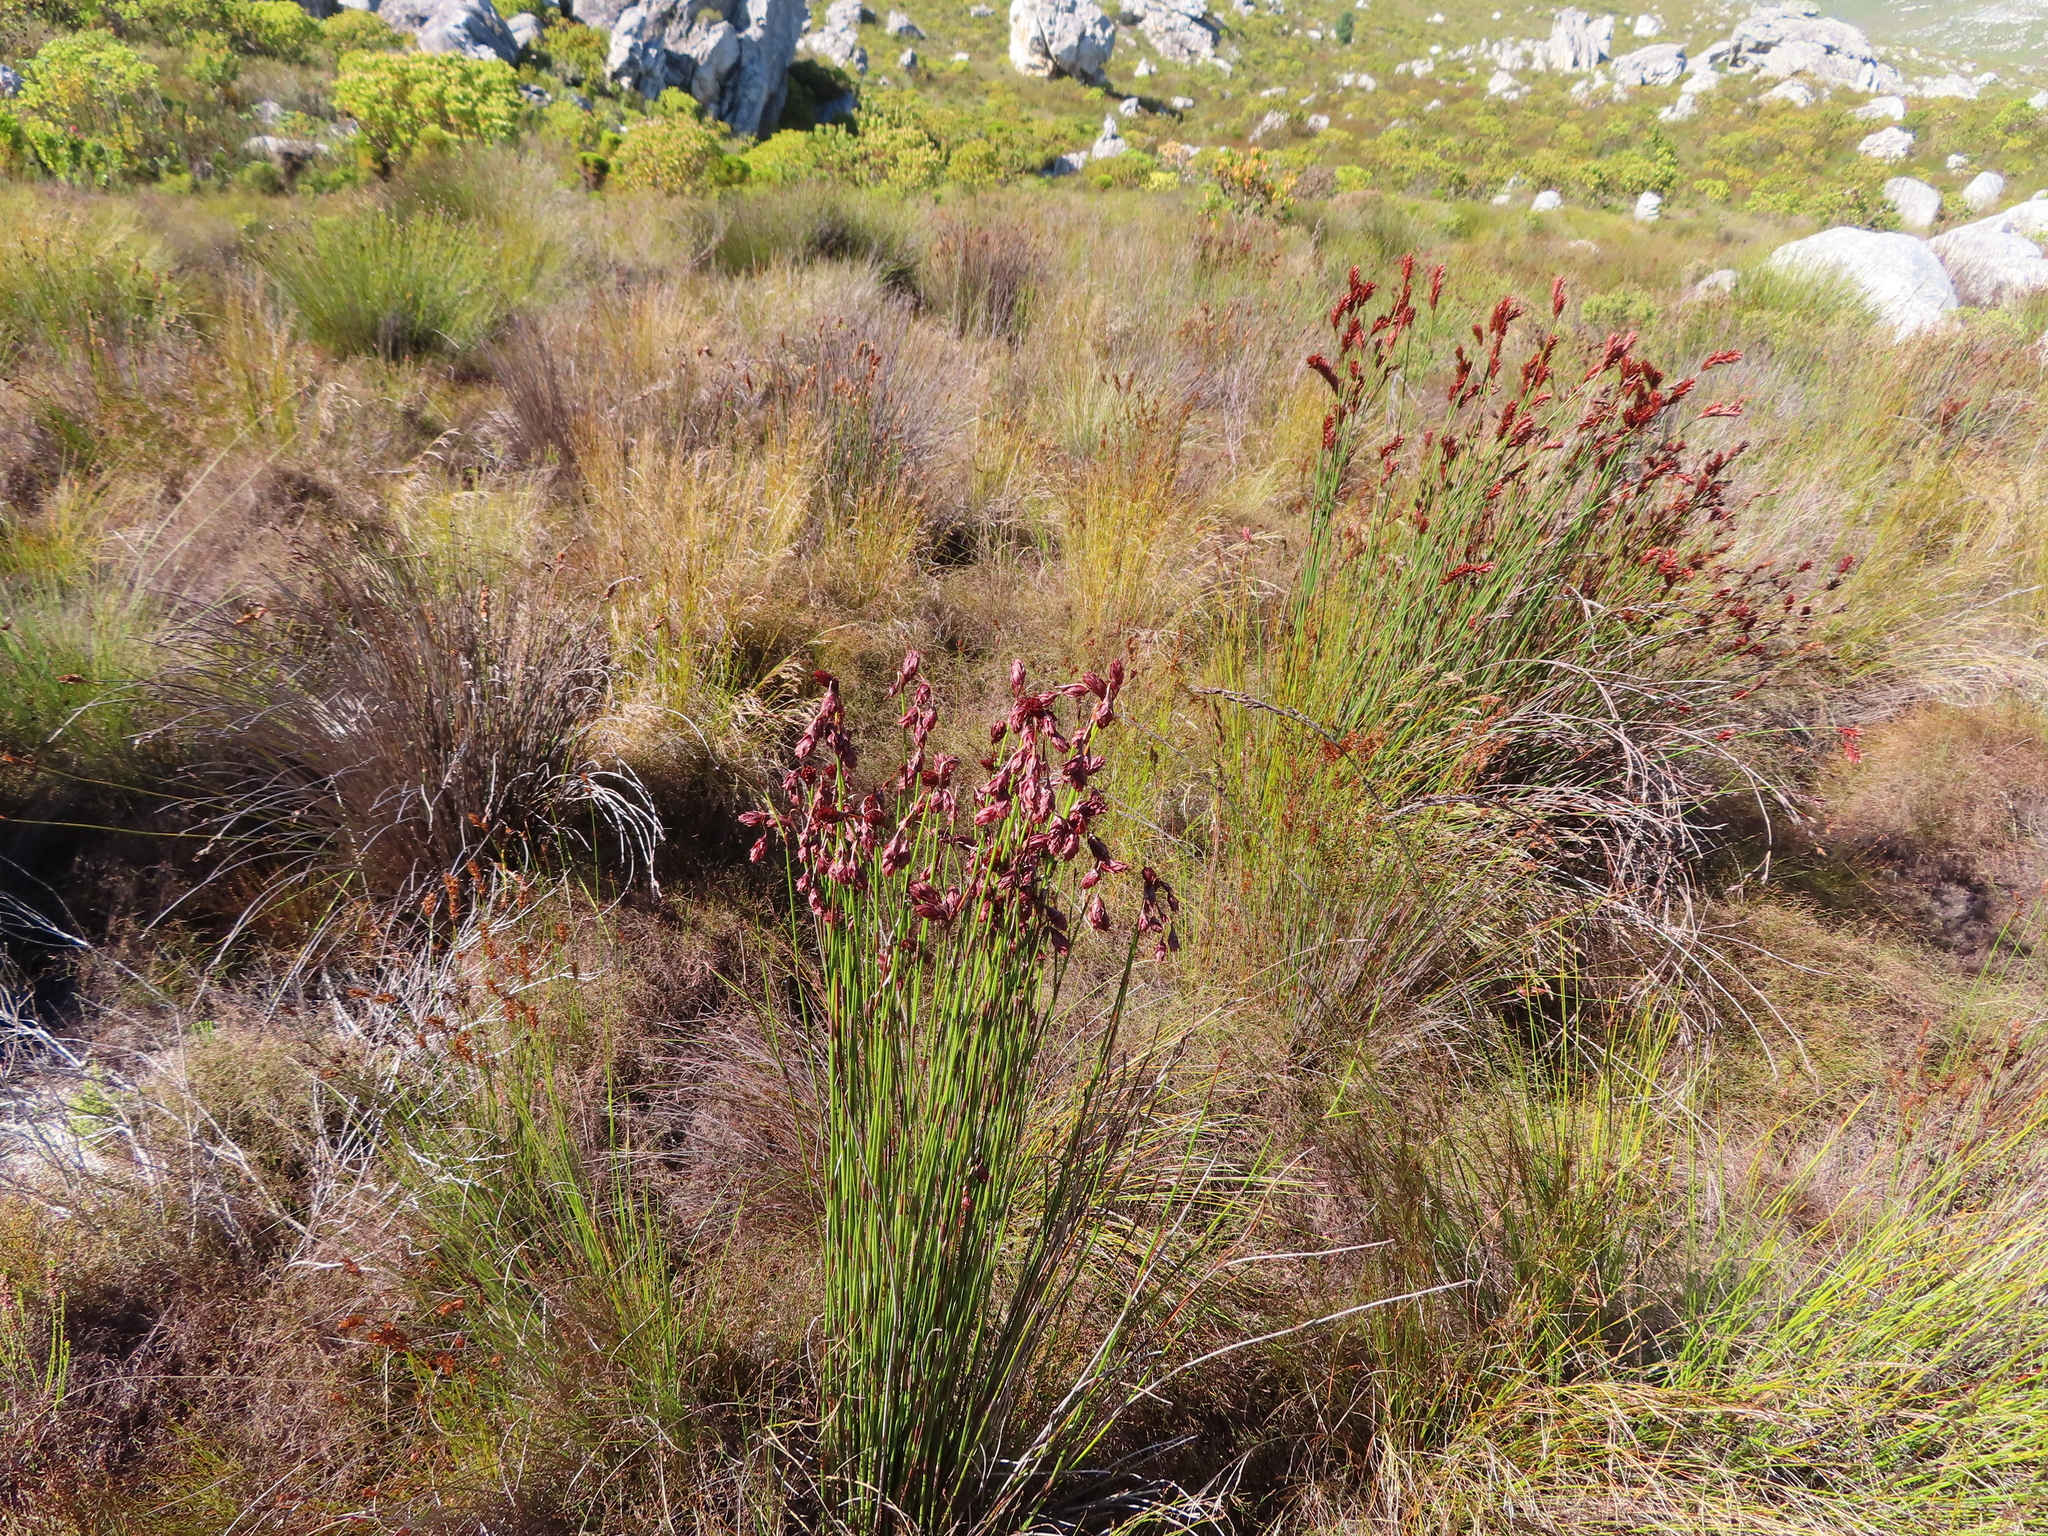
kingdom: Plantae
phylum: Tracheophyta
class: Liliopsida
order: Poales
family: Restionaceae
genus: Restio
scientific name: Restio bifarius
